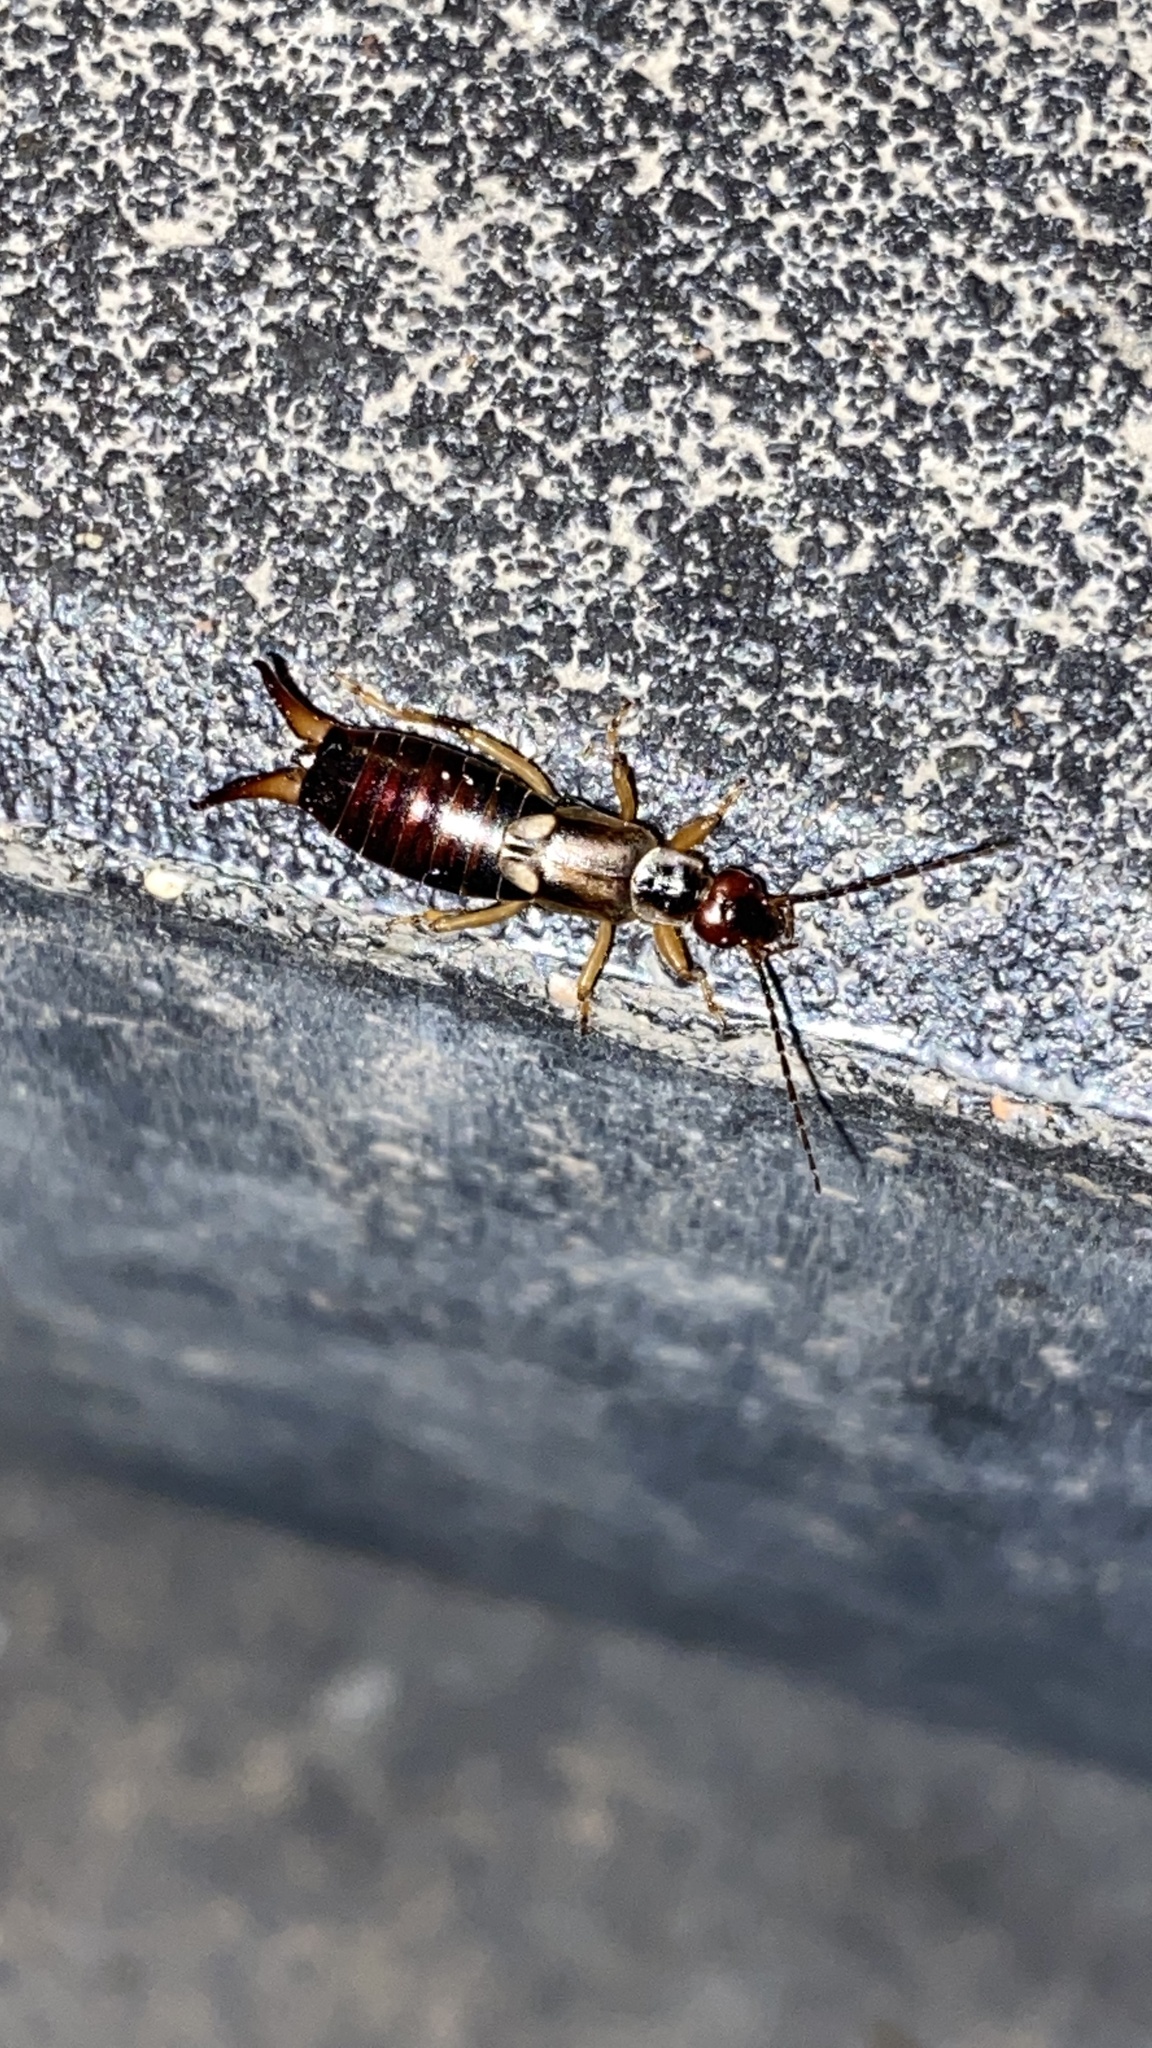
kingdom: Animalia
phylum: Arthropoda
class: Insecta
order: Dermaptera
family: Forficulidae
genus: Forficula
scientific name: Forficula
